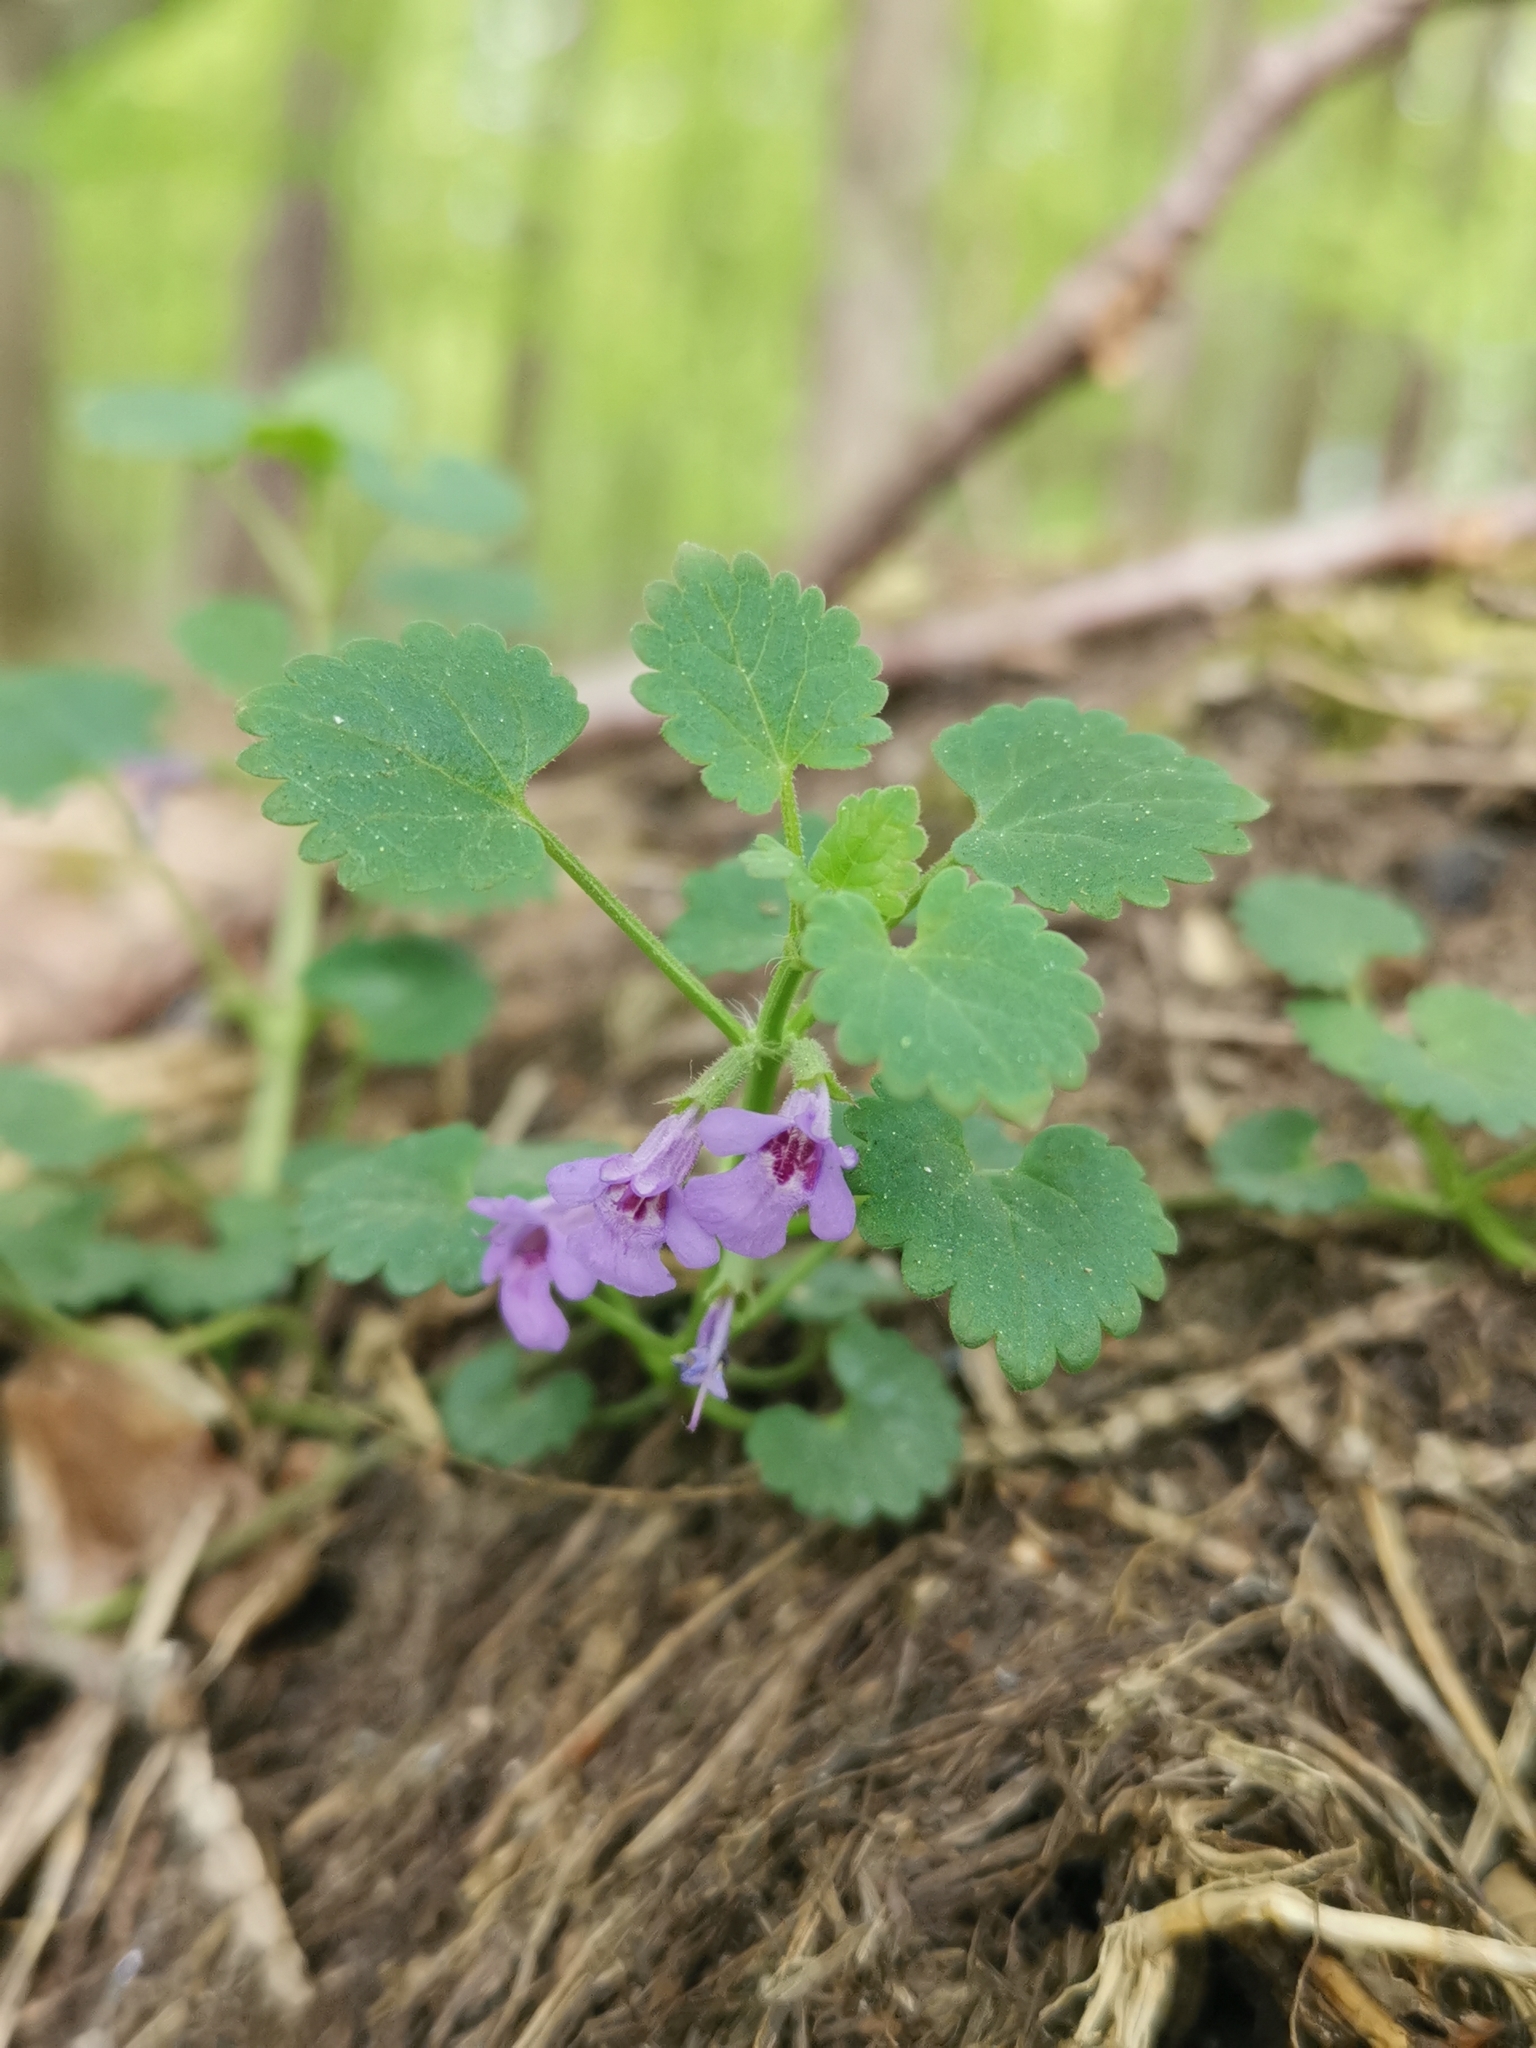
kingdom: Plantae
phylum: Tracheophyta
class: Magnoliopsida
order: Lamiales
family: Lamiaceae
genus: Glechoma
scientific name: Glechoma hederacea
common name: Ground ivy
